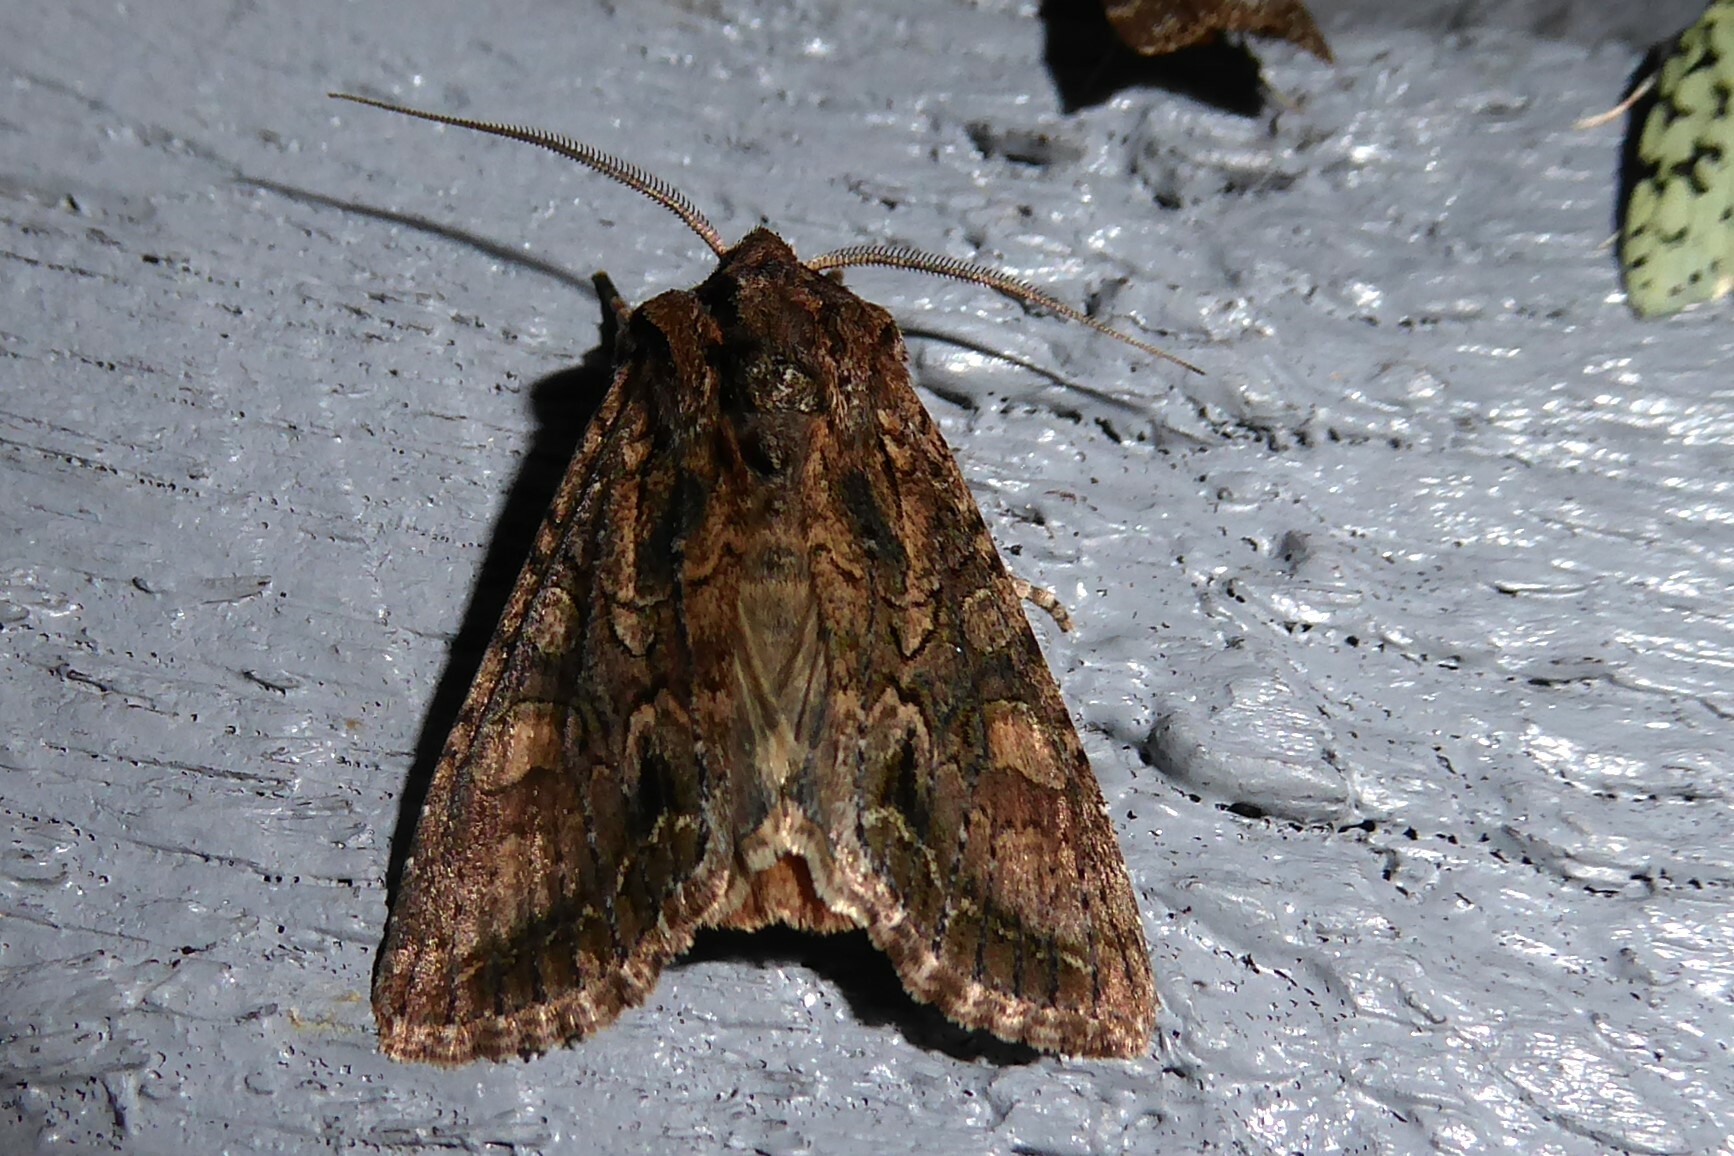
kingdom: Animalia
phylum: Arthropoda
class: Insecta
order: Lepidoptera
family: Noctuidae
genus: Ichneutica
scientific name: Ichneutica mutans
